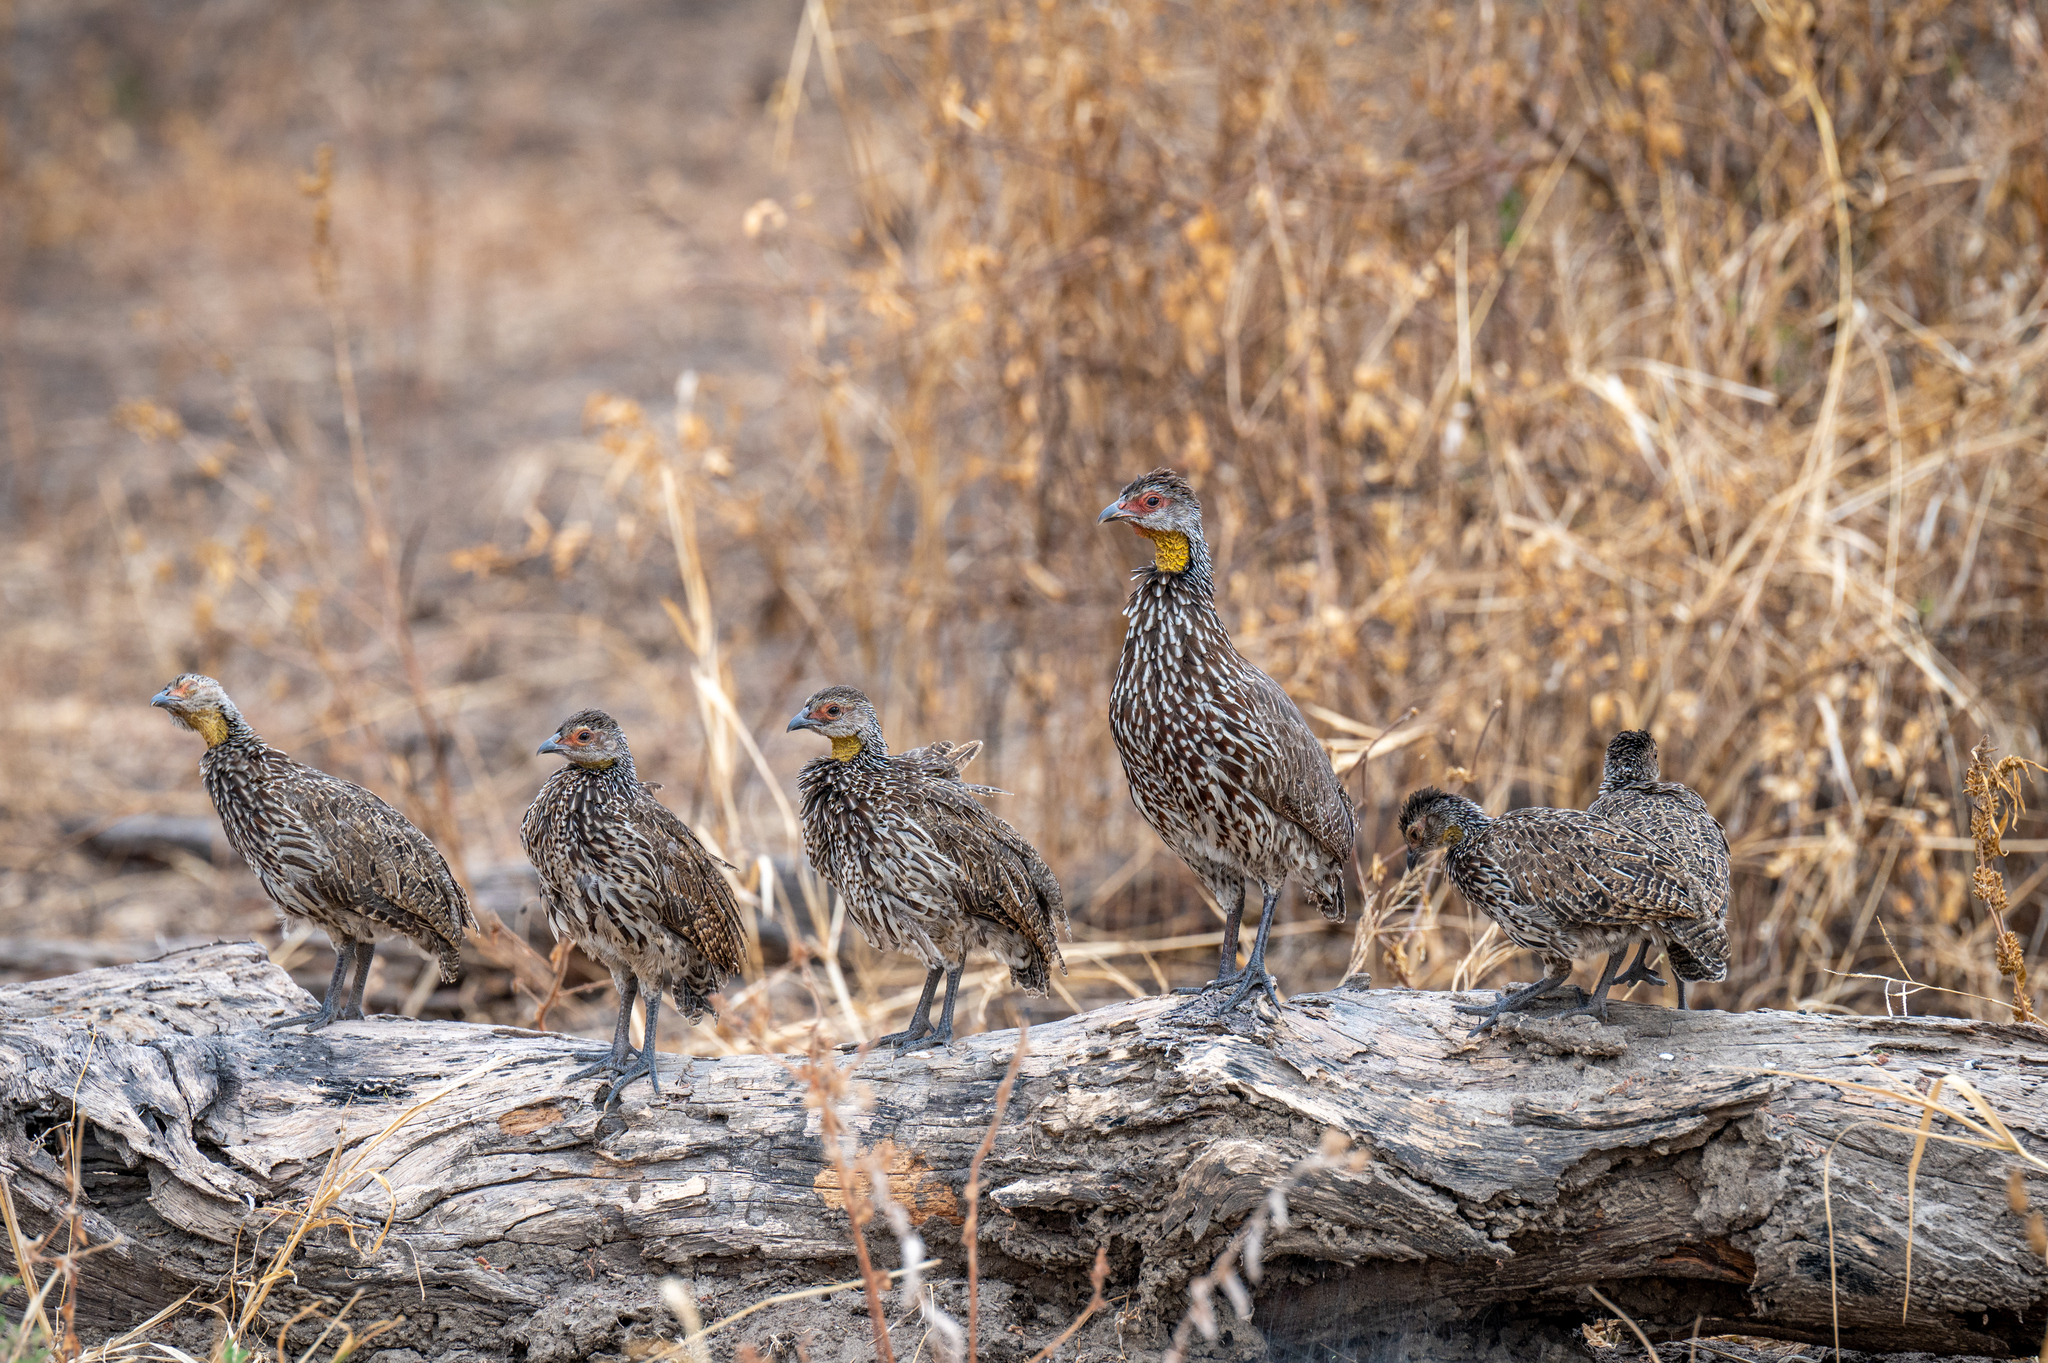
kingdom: Animalia
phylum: Chordata
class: Aves
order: Galliformes
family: Phasianidae
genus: Pternistis
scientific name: Pternistis leucoscepus
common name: Yellow-necked spurfowl
